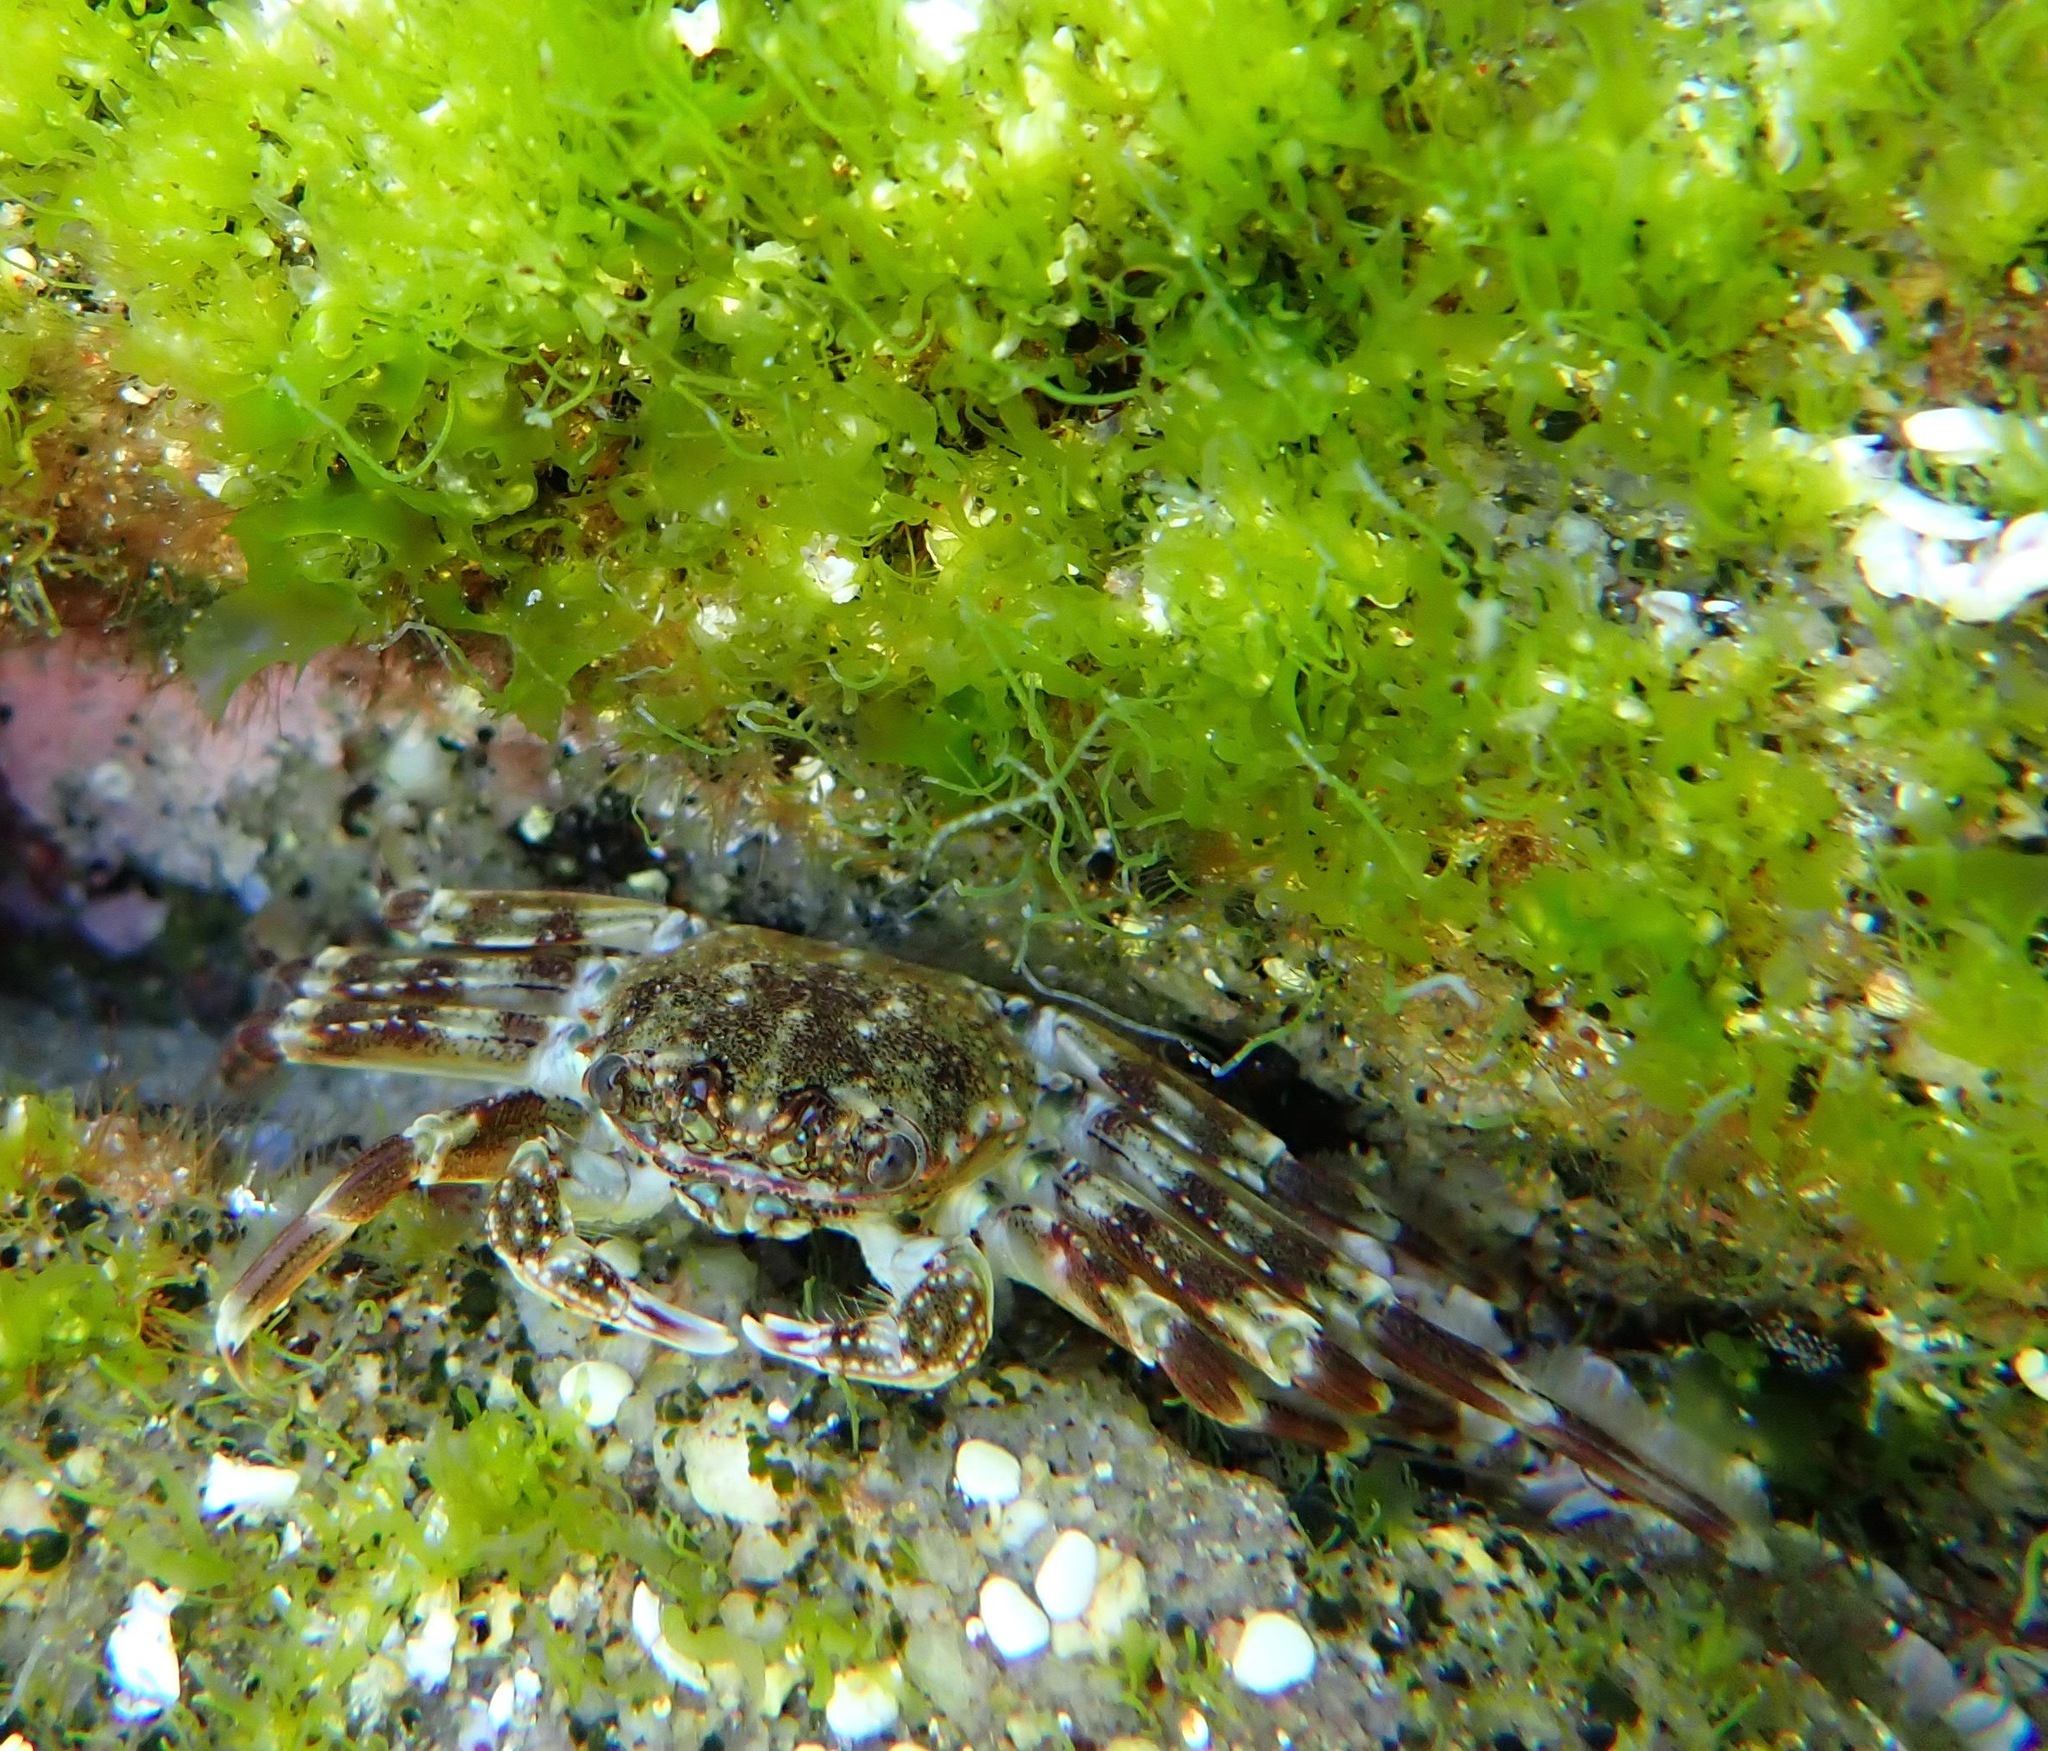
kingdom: Animalia
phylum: Arthropoda
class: Malacostraca
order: Decapoda
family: Plagusiidae
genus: Guinusia
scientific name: Guinusia chabrus
